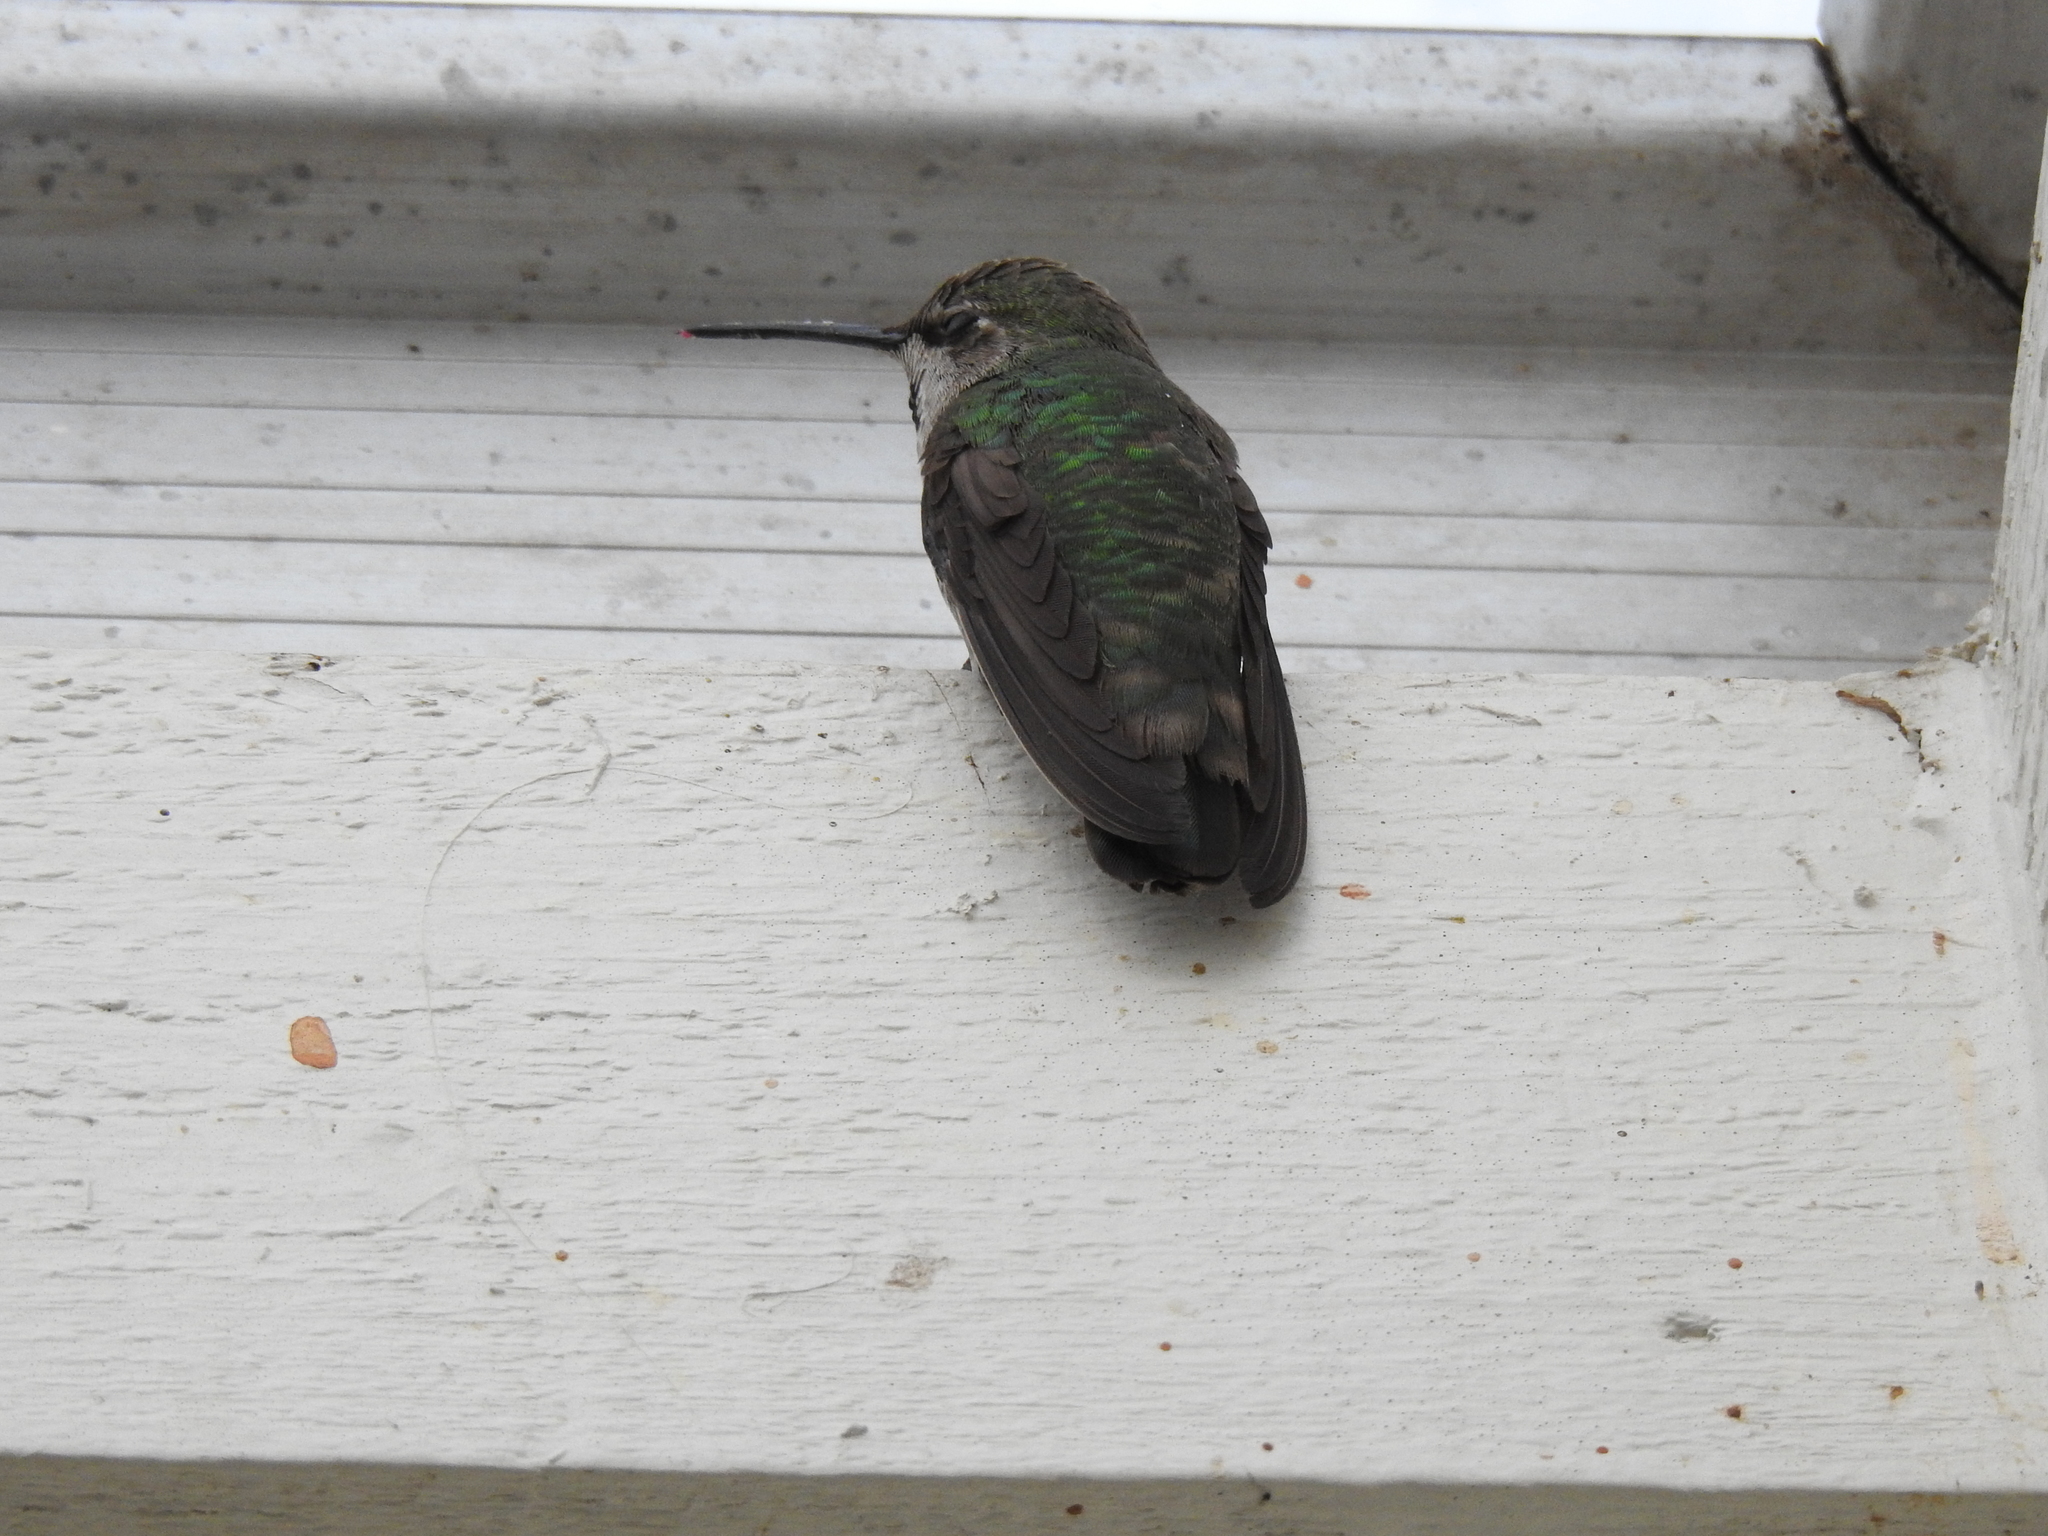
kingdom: Animalia
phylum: Chordata
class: Aves
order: Apodiformes
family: Trochilidae
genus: Calypte
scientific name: Calypte anna
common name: Anna's hummingbird
